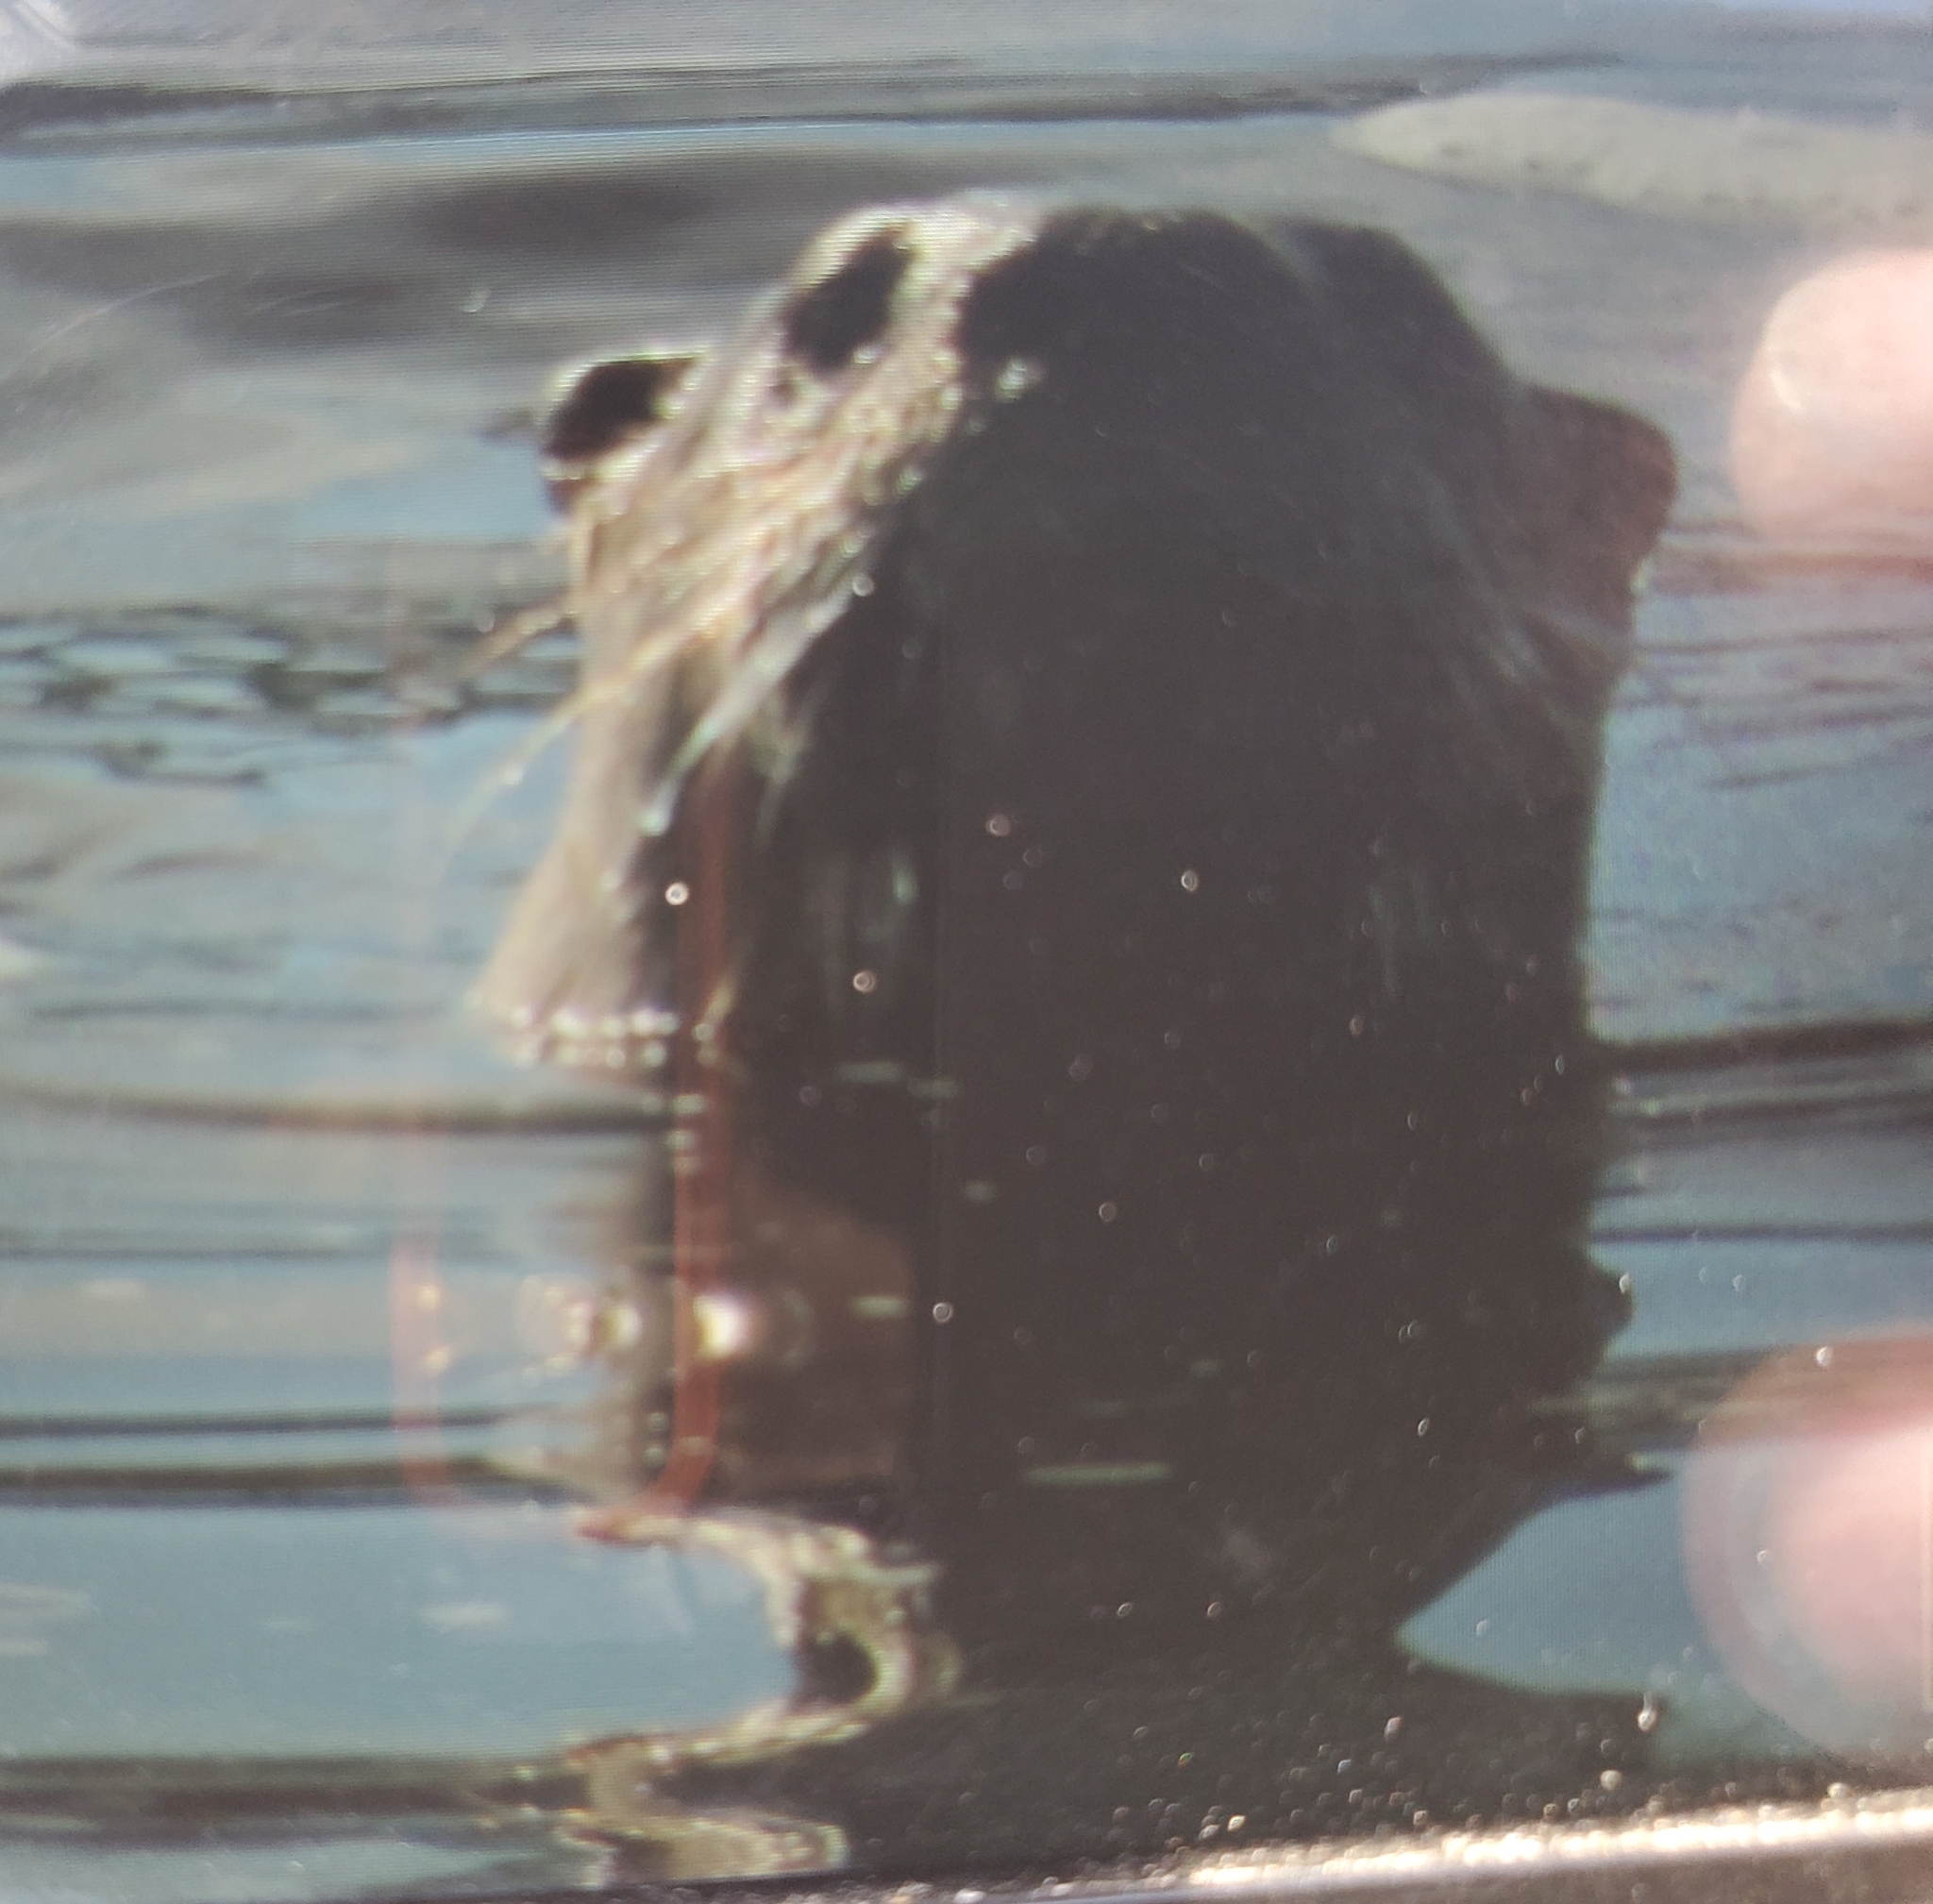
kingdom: Animalia
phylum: Chordata
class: Mammalia
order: Carnivora
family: Mustelidae
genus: Lontra
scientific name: Lontra canadensis
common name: North american river otter
